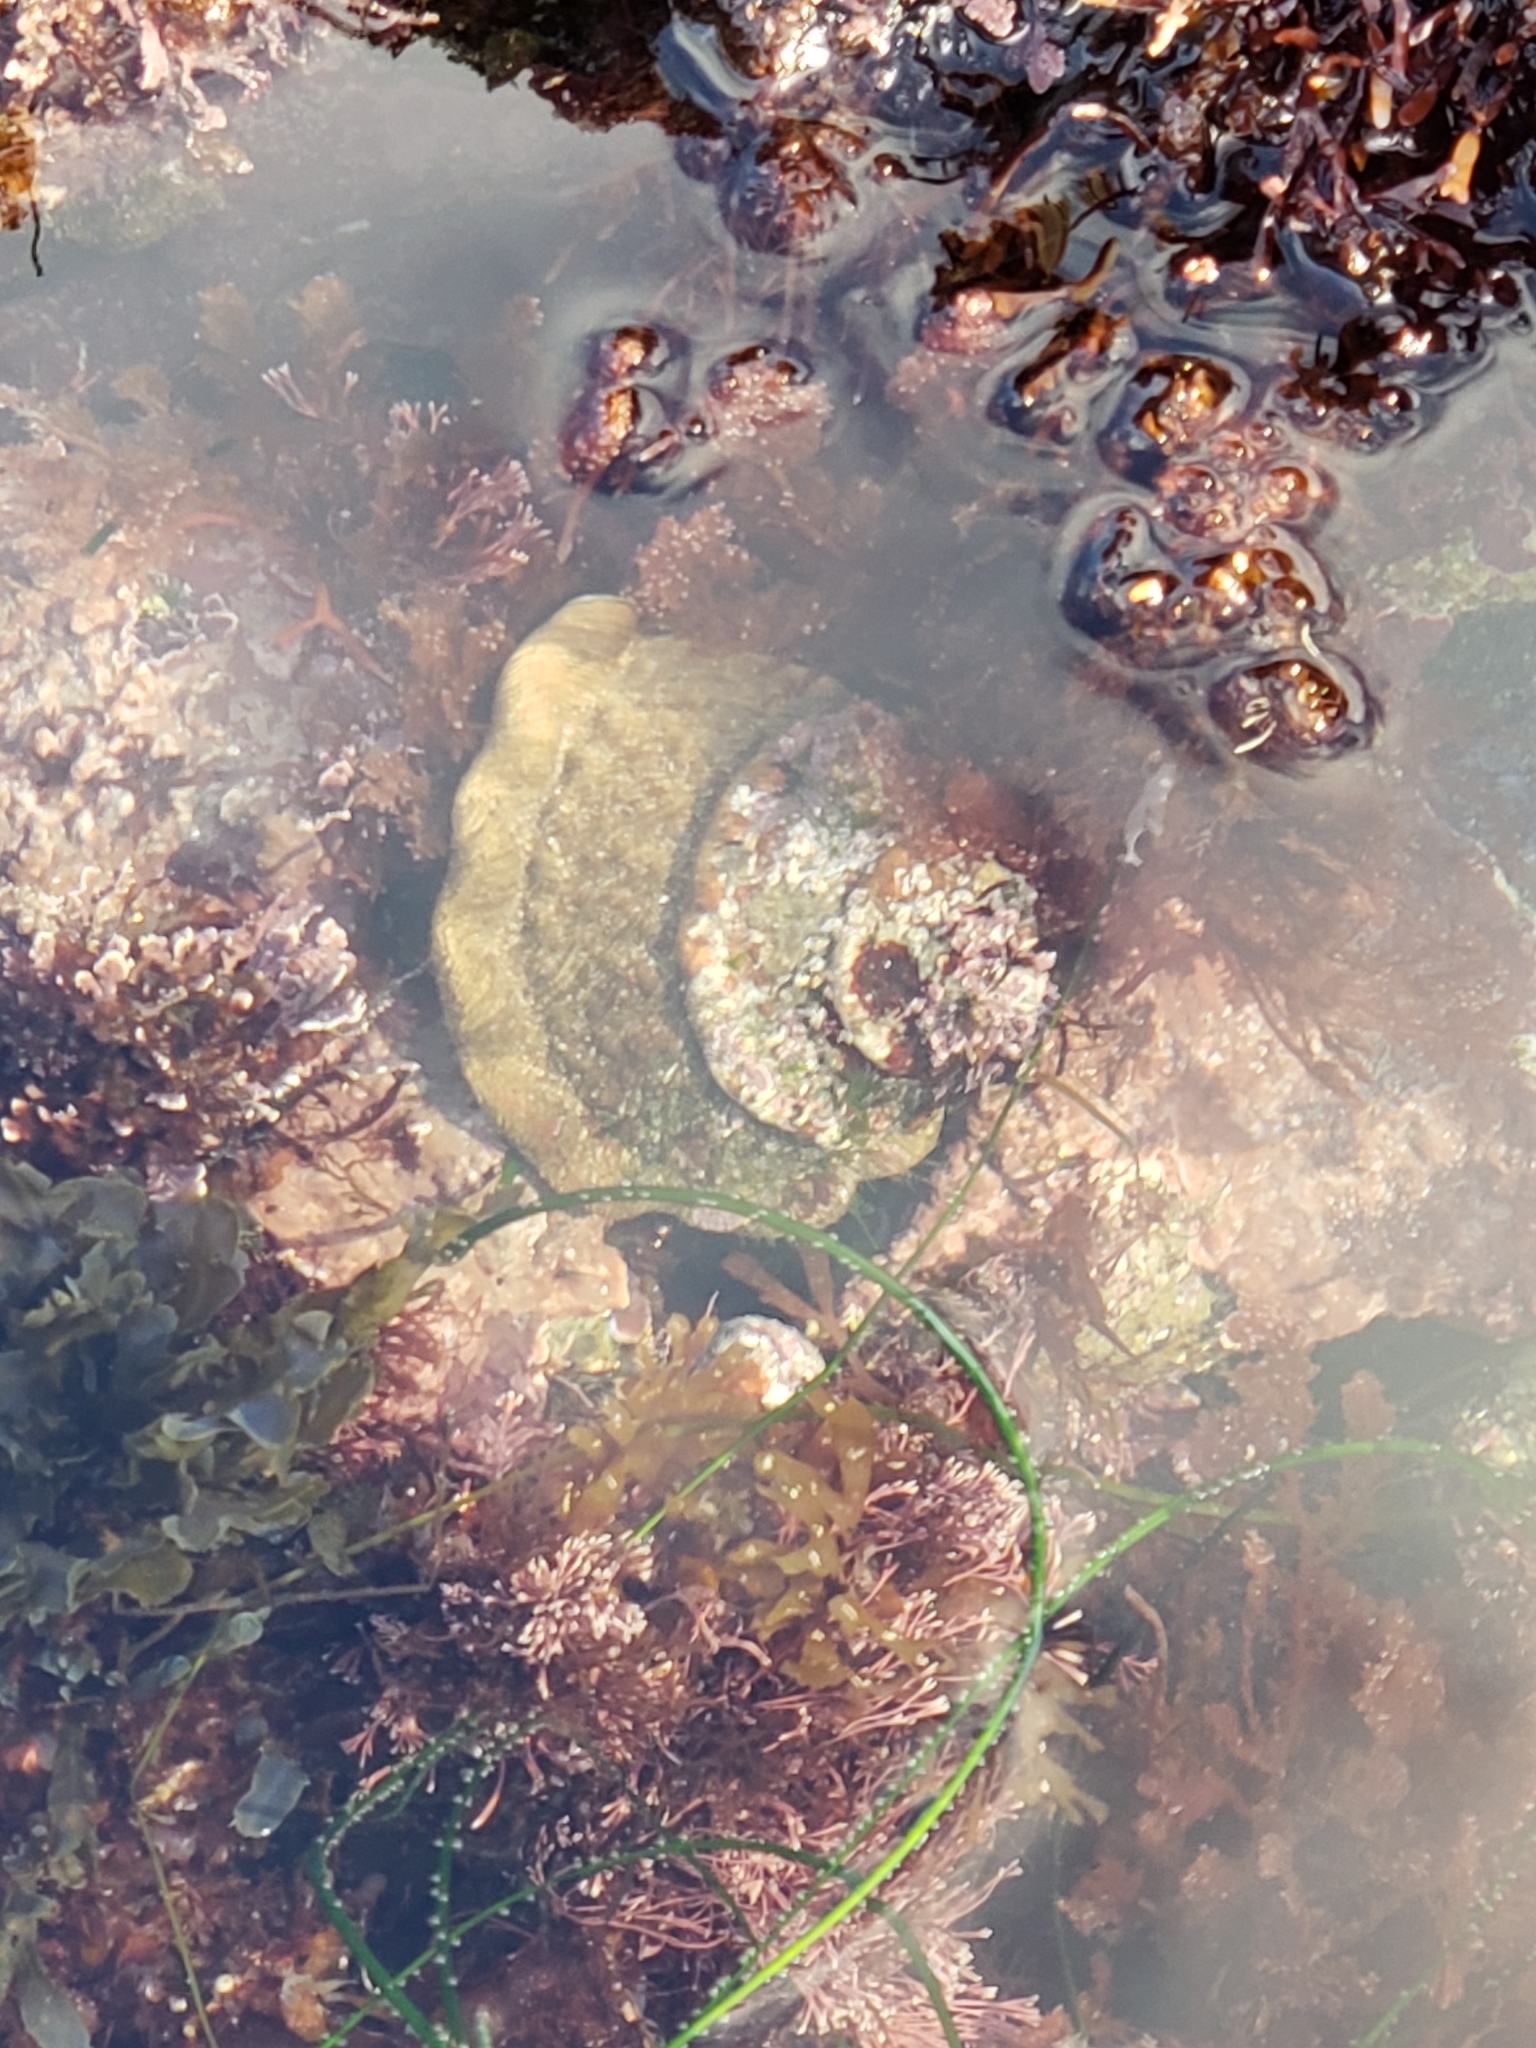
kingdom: Animalia
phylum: Mollusca
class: Gastropoda
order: Trochida
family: Turbinidae
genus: Megastraea
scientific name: Megastraea undosa
